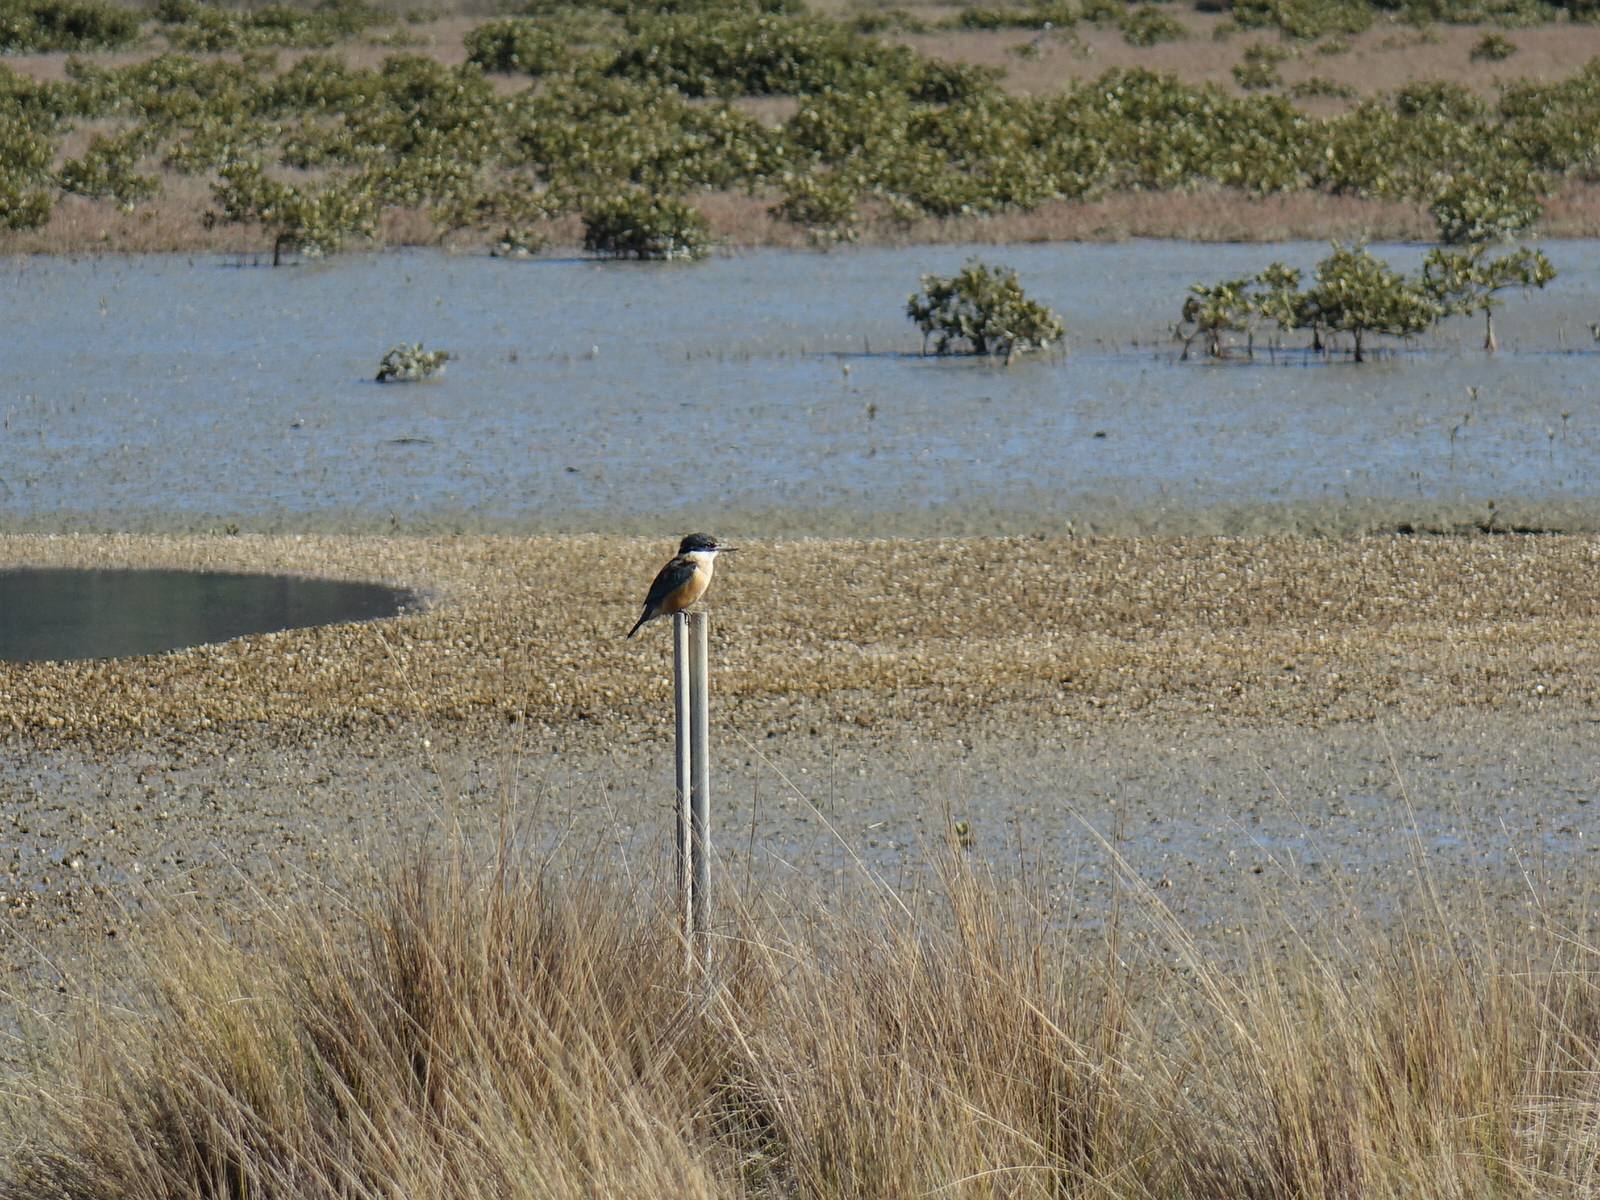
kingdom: Animalia
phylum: Chordata
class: Aves
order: Coraciiformes
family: Alcedinidae
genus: Todiramphus
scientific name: Todiramphus sanctus
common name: Sacred kingfisher
